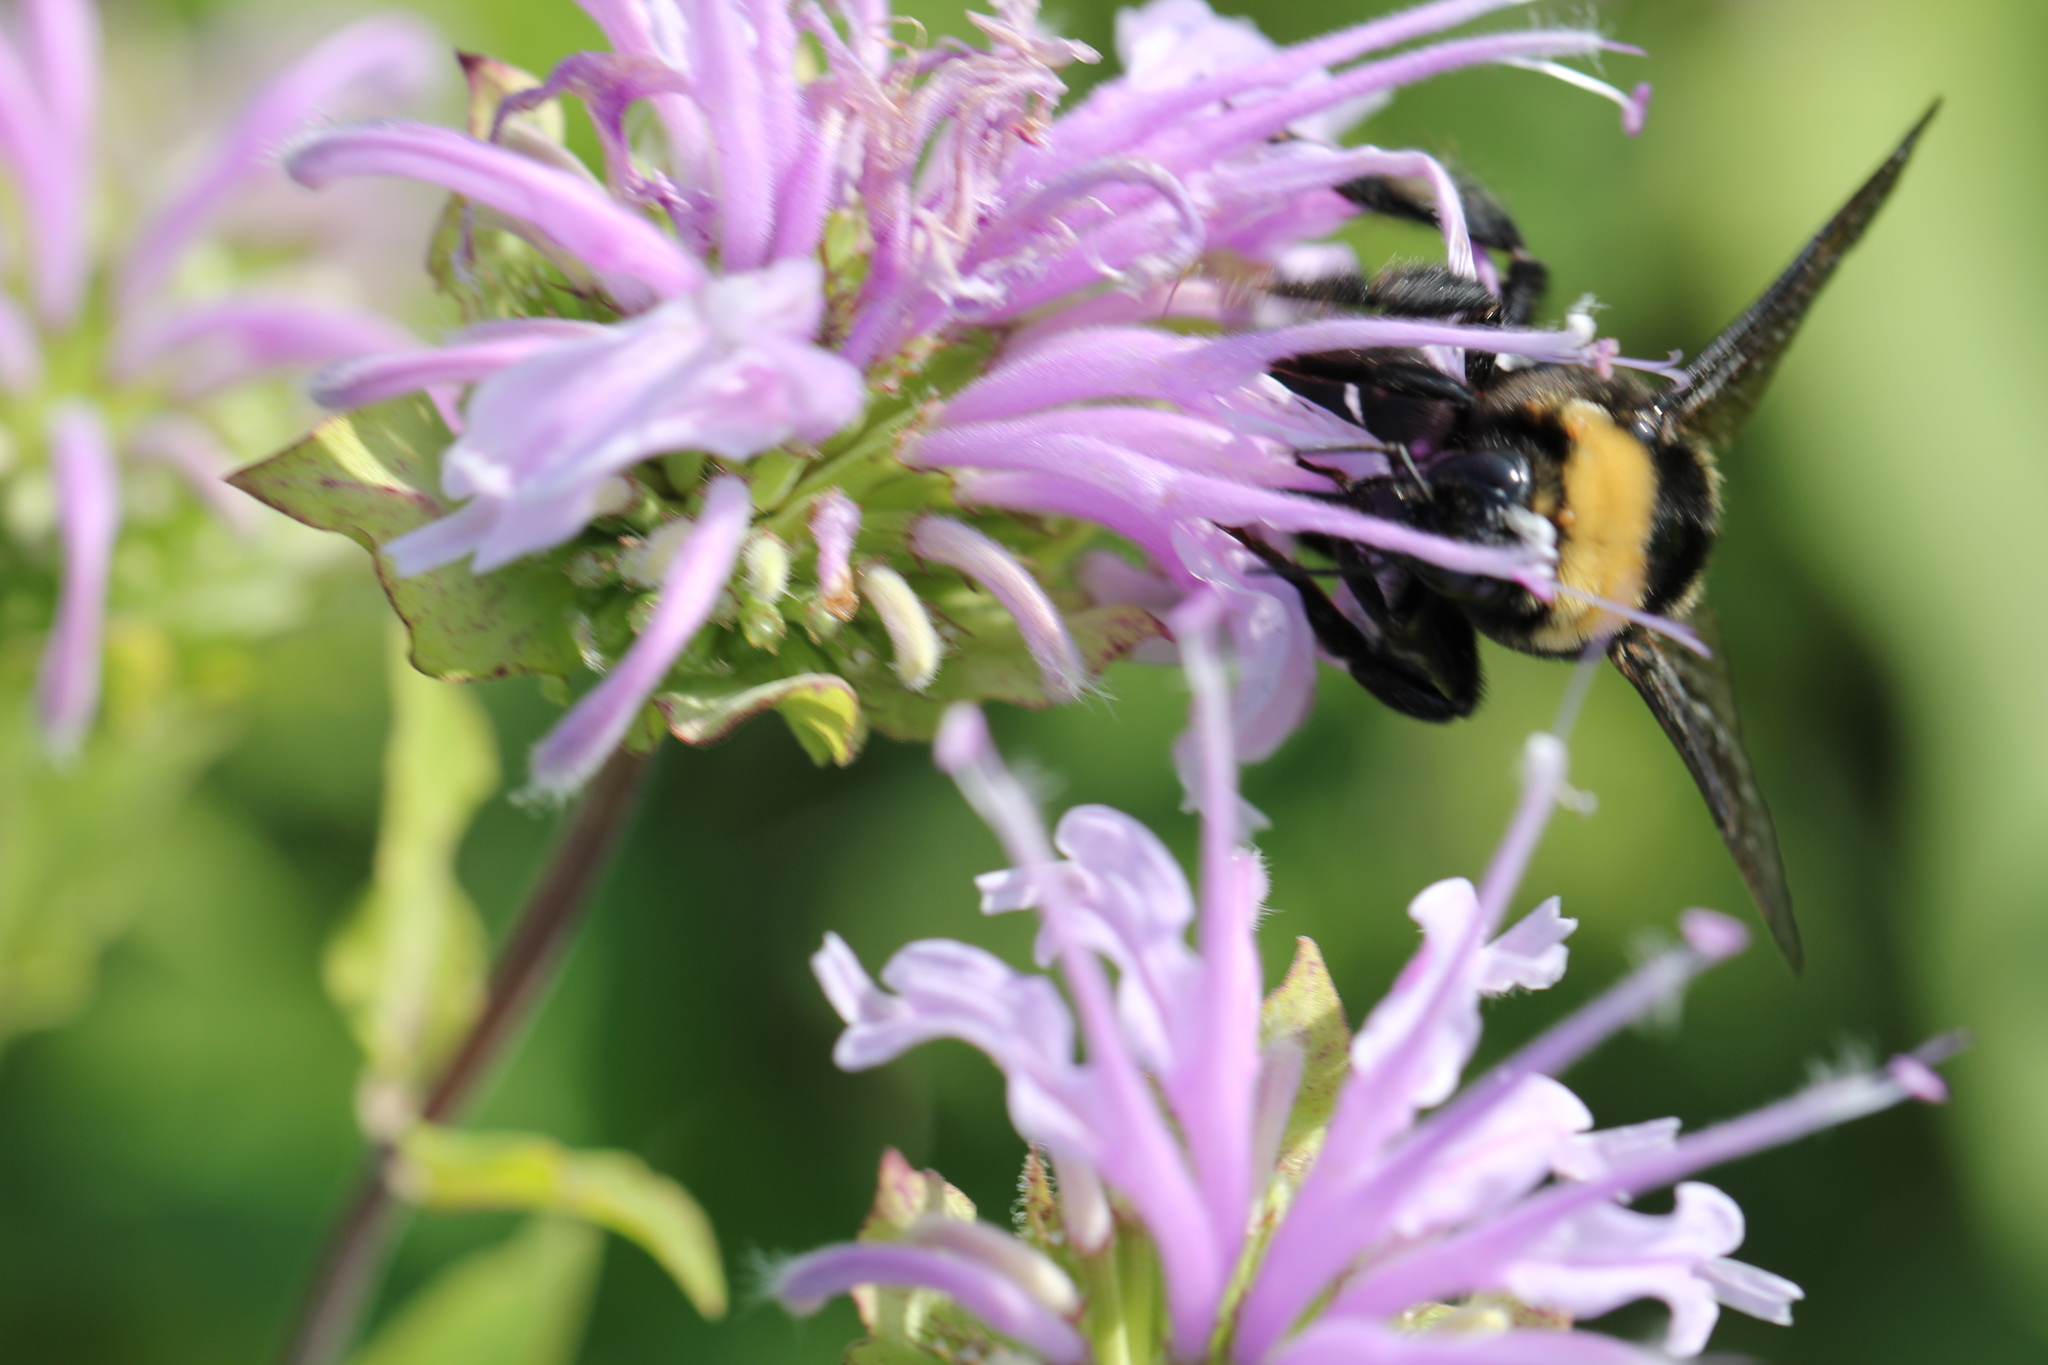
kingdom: Animalia
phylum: Arthropoda
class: Insecta
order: Hymenoptera
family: Apidae
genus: Bombus
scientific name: Bombus auricomus
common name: Black and gold bumble bee
